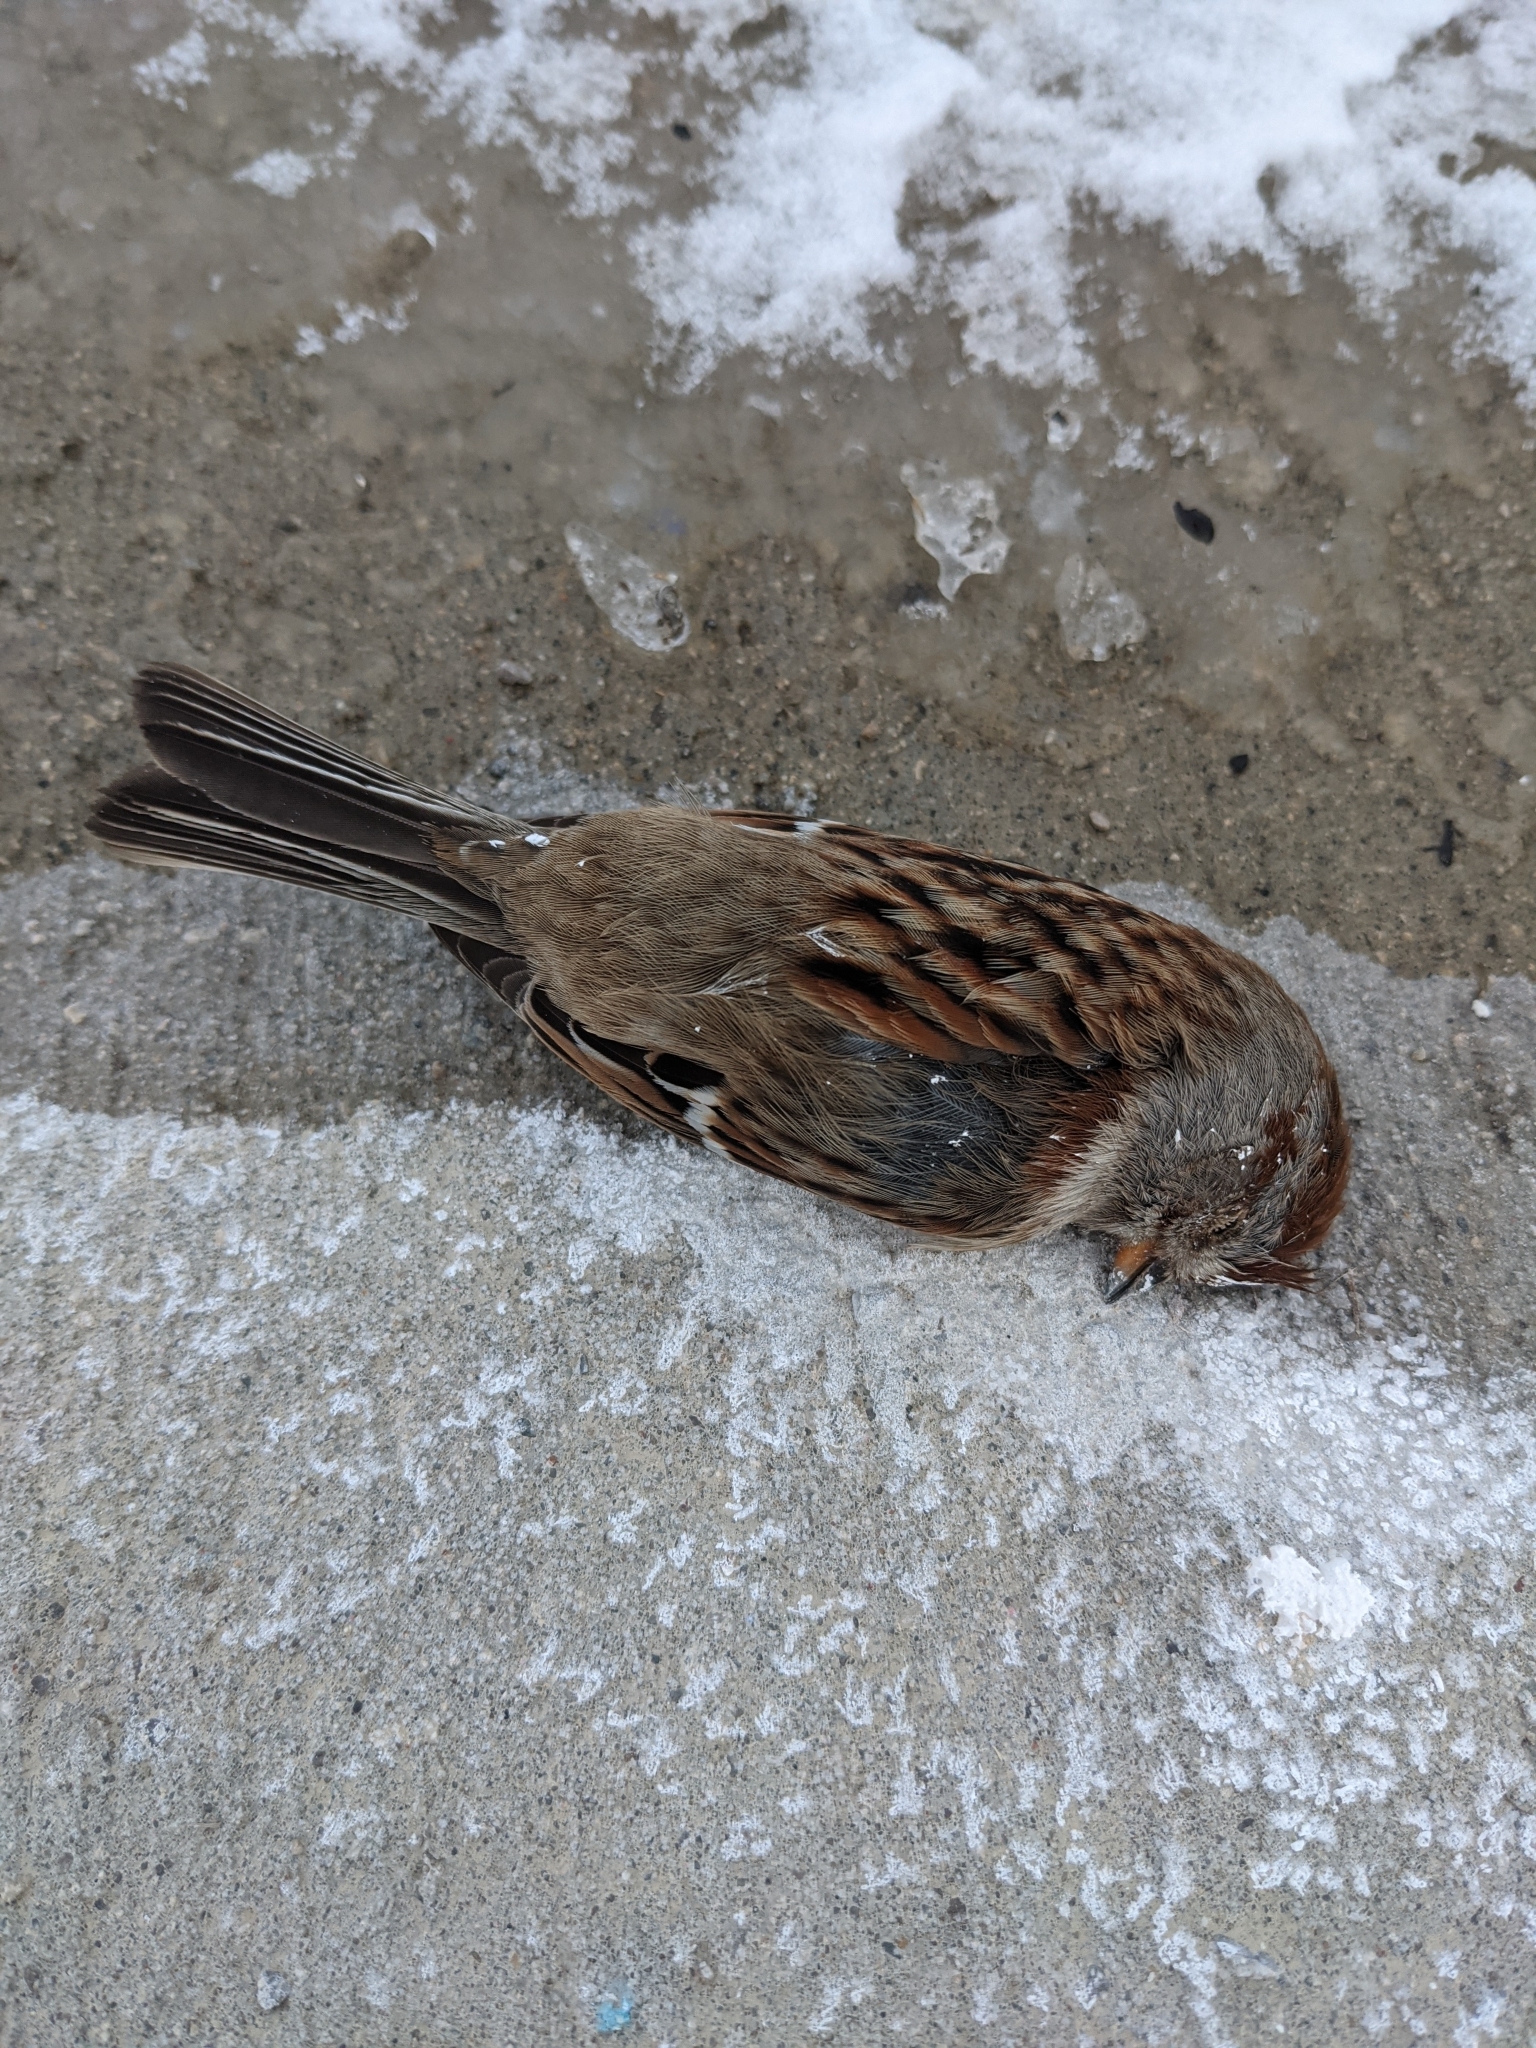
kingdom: Animalia
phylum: Chordata
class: Aves
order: Passeriformes
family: Passerellidae
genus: Spizelloides
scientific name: Spizelloides arborea
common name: American tree sparrow
